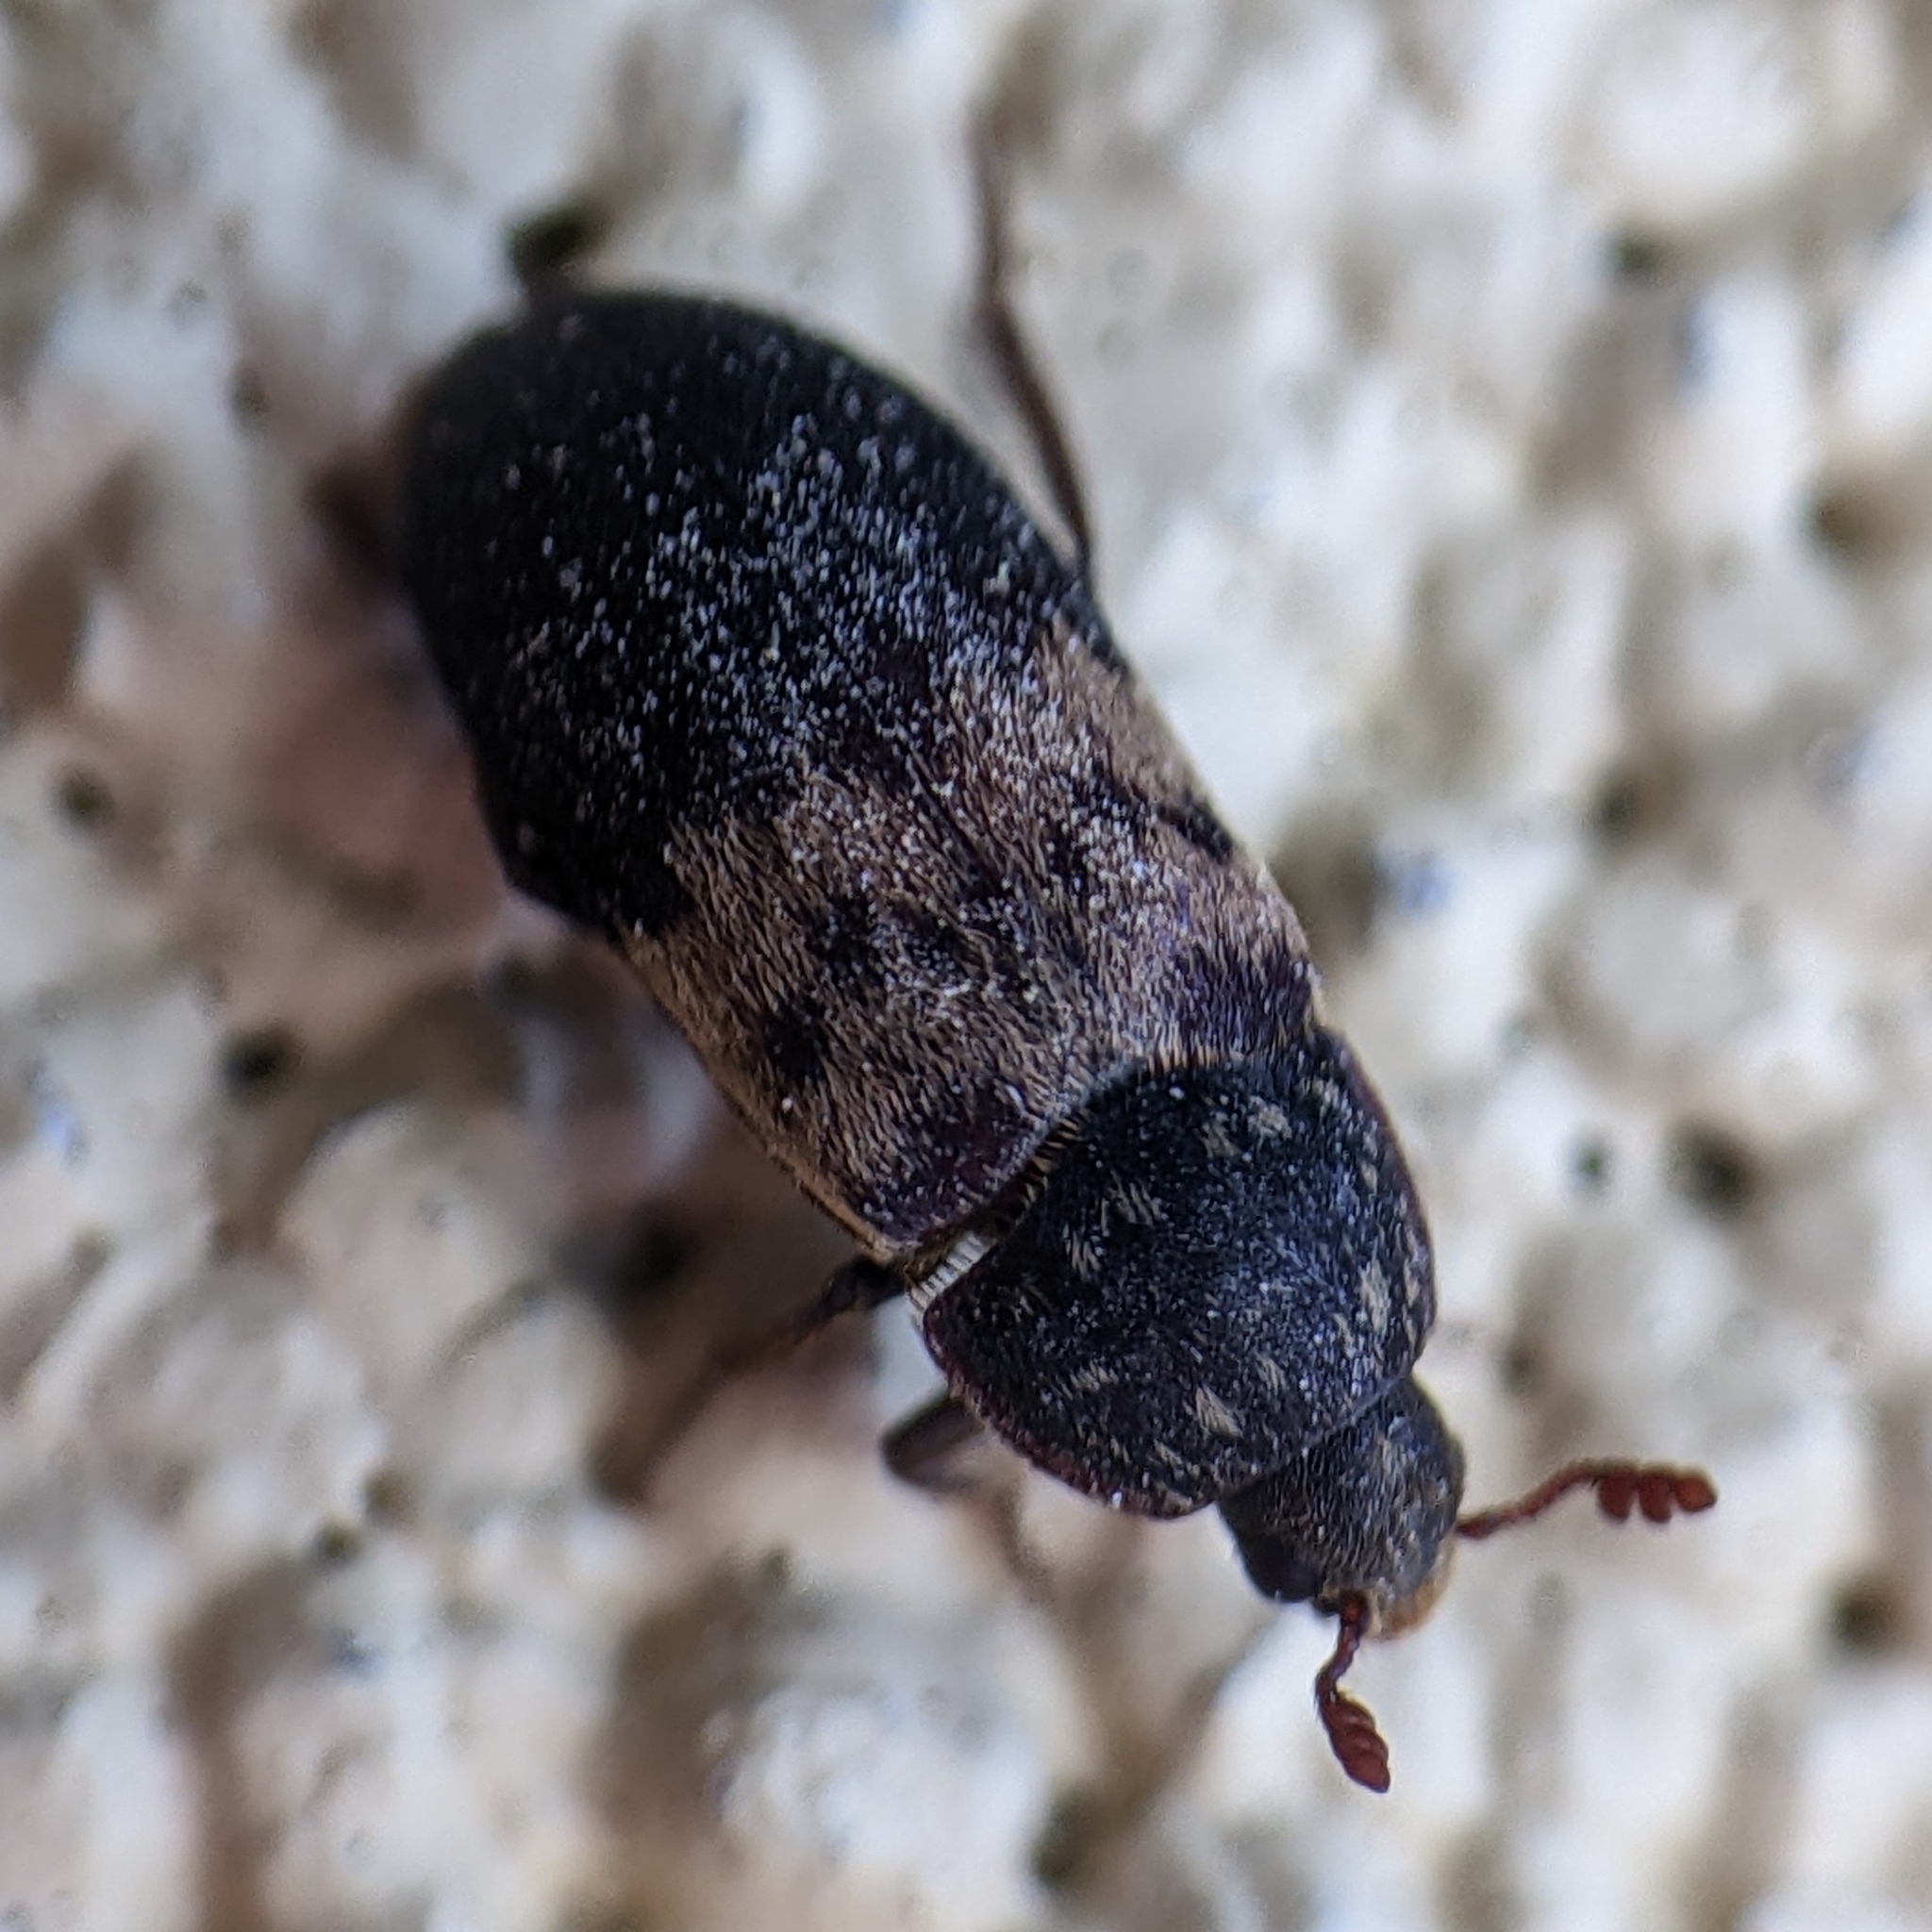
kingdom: Animalia
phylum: Arthropoda
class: Insecta
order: Coleoptera
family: Dermestidae
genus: Dermestes
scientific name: Dermestes lardarius
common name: Larder beetle
